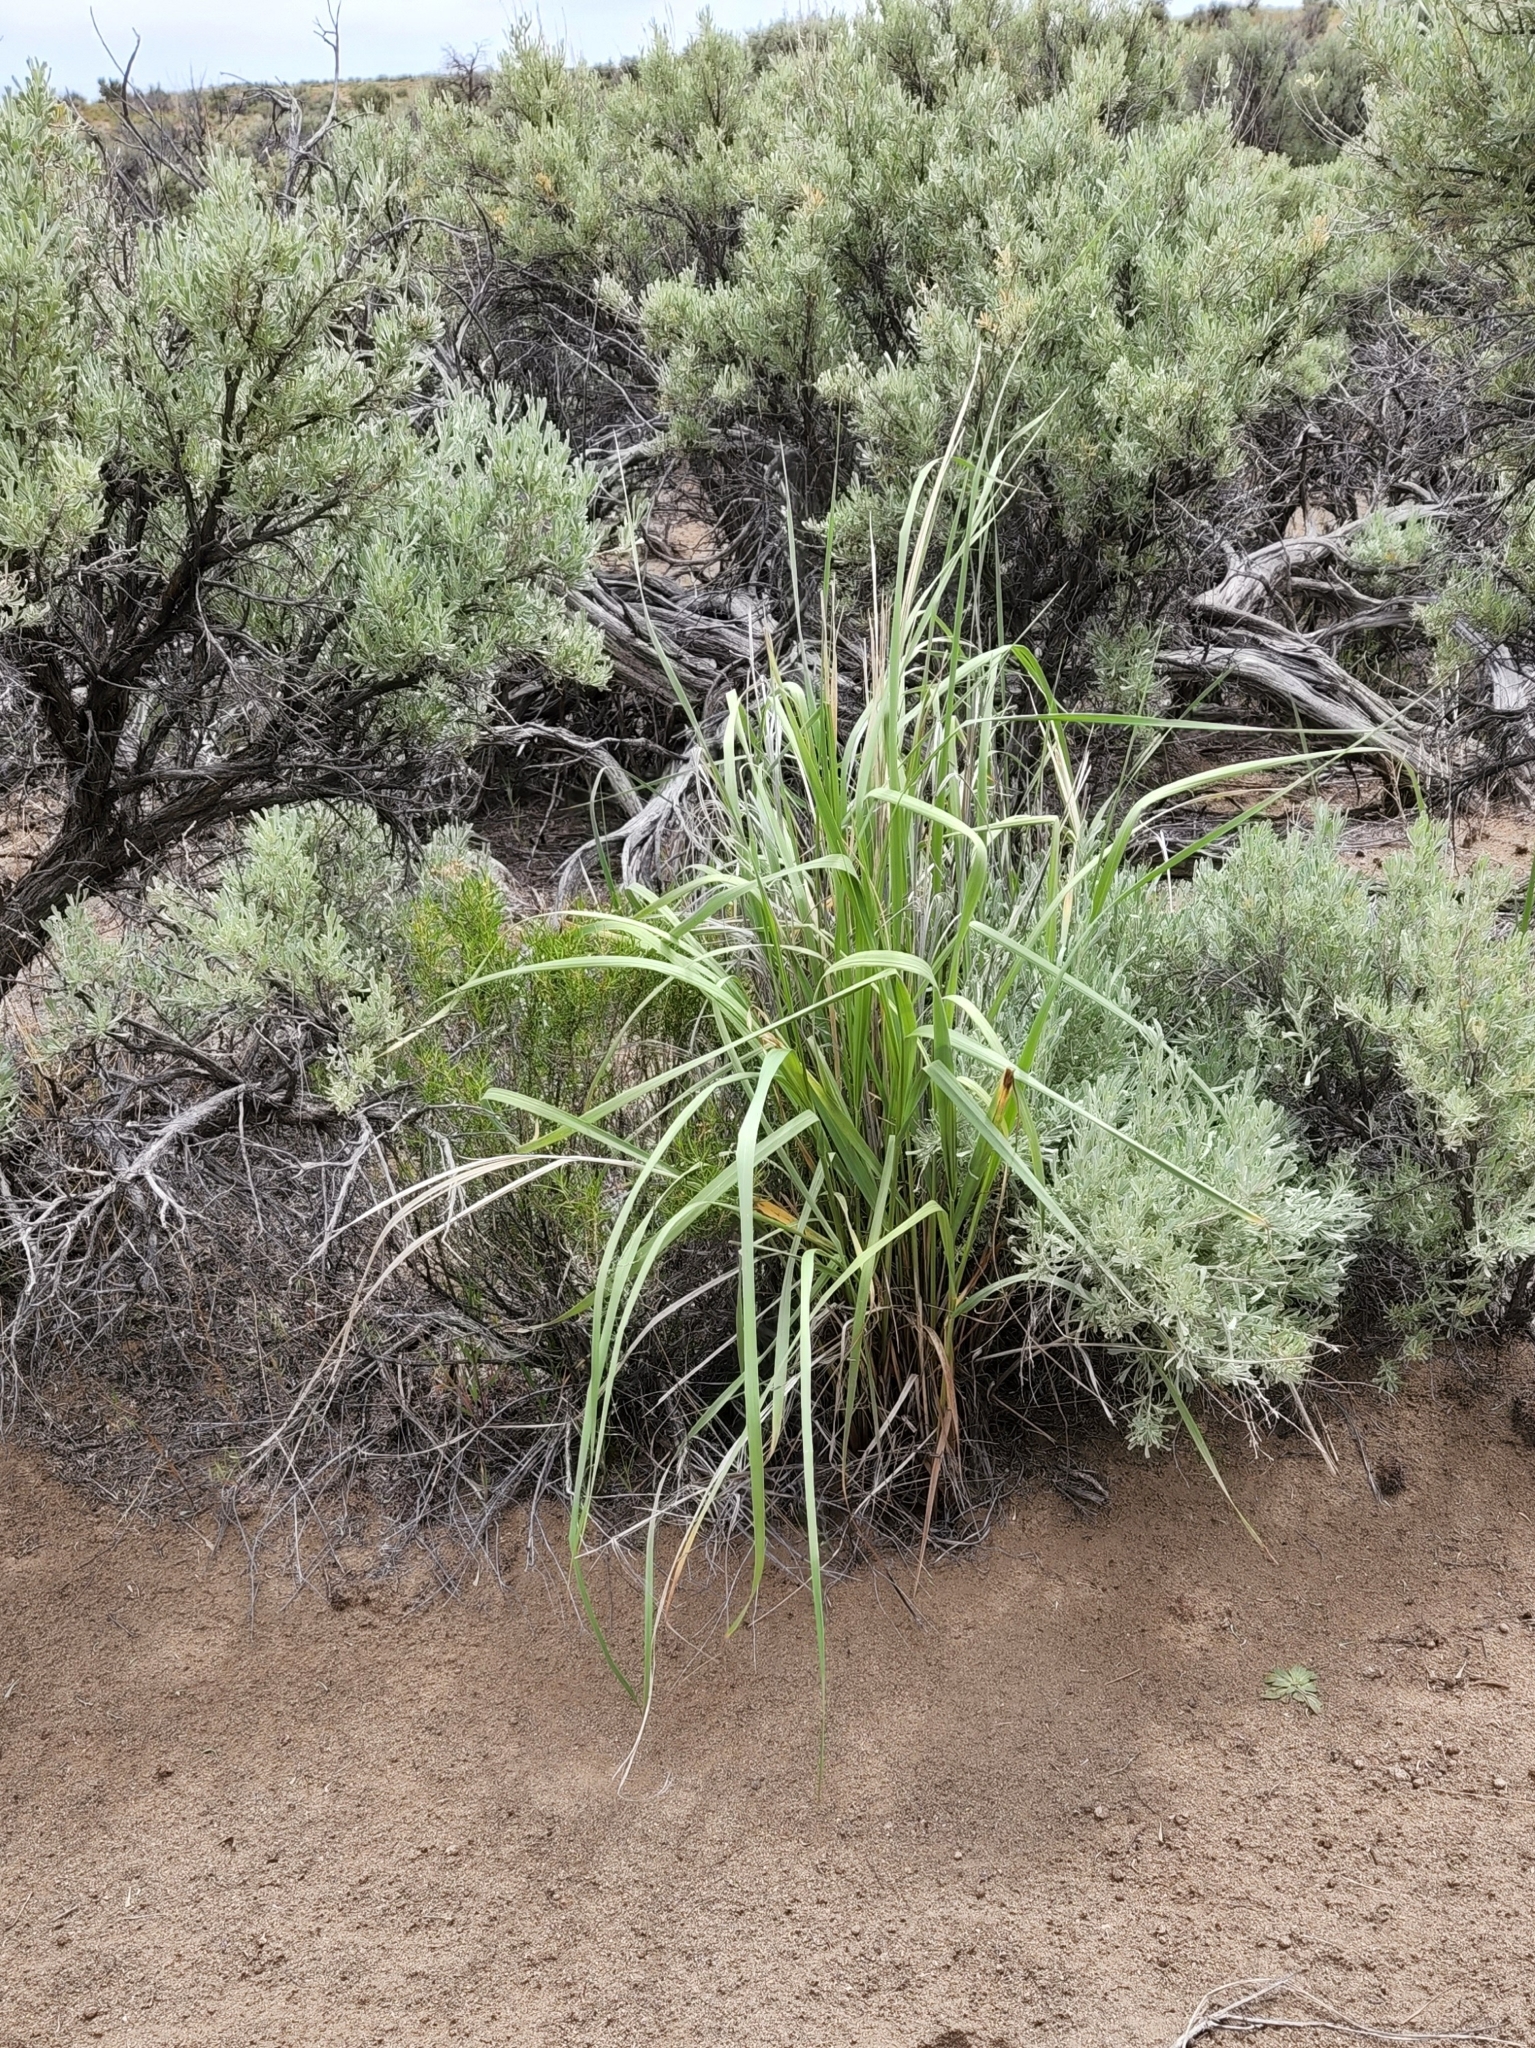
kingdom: Plantae
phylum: Tracheophyta
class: Liliopsida
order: Poales
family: Poaceae
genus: Leymus
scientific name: Leymus cinereus
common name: Basin wild rye
